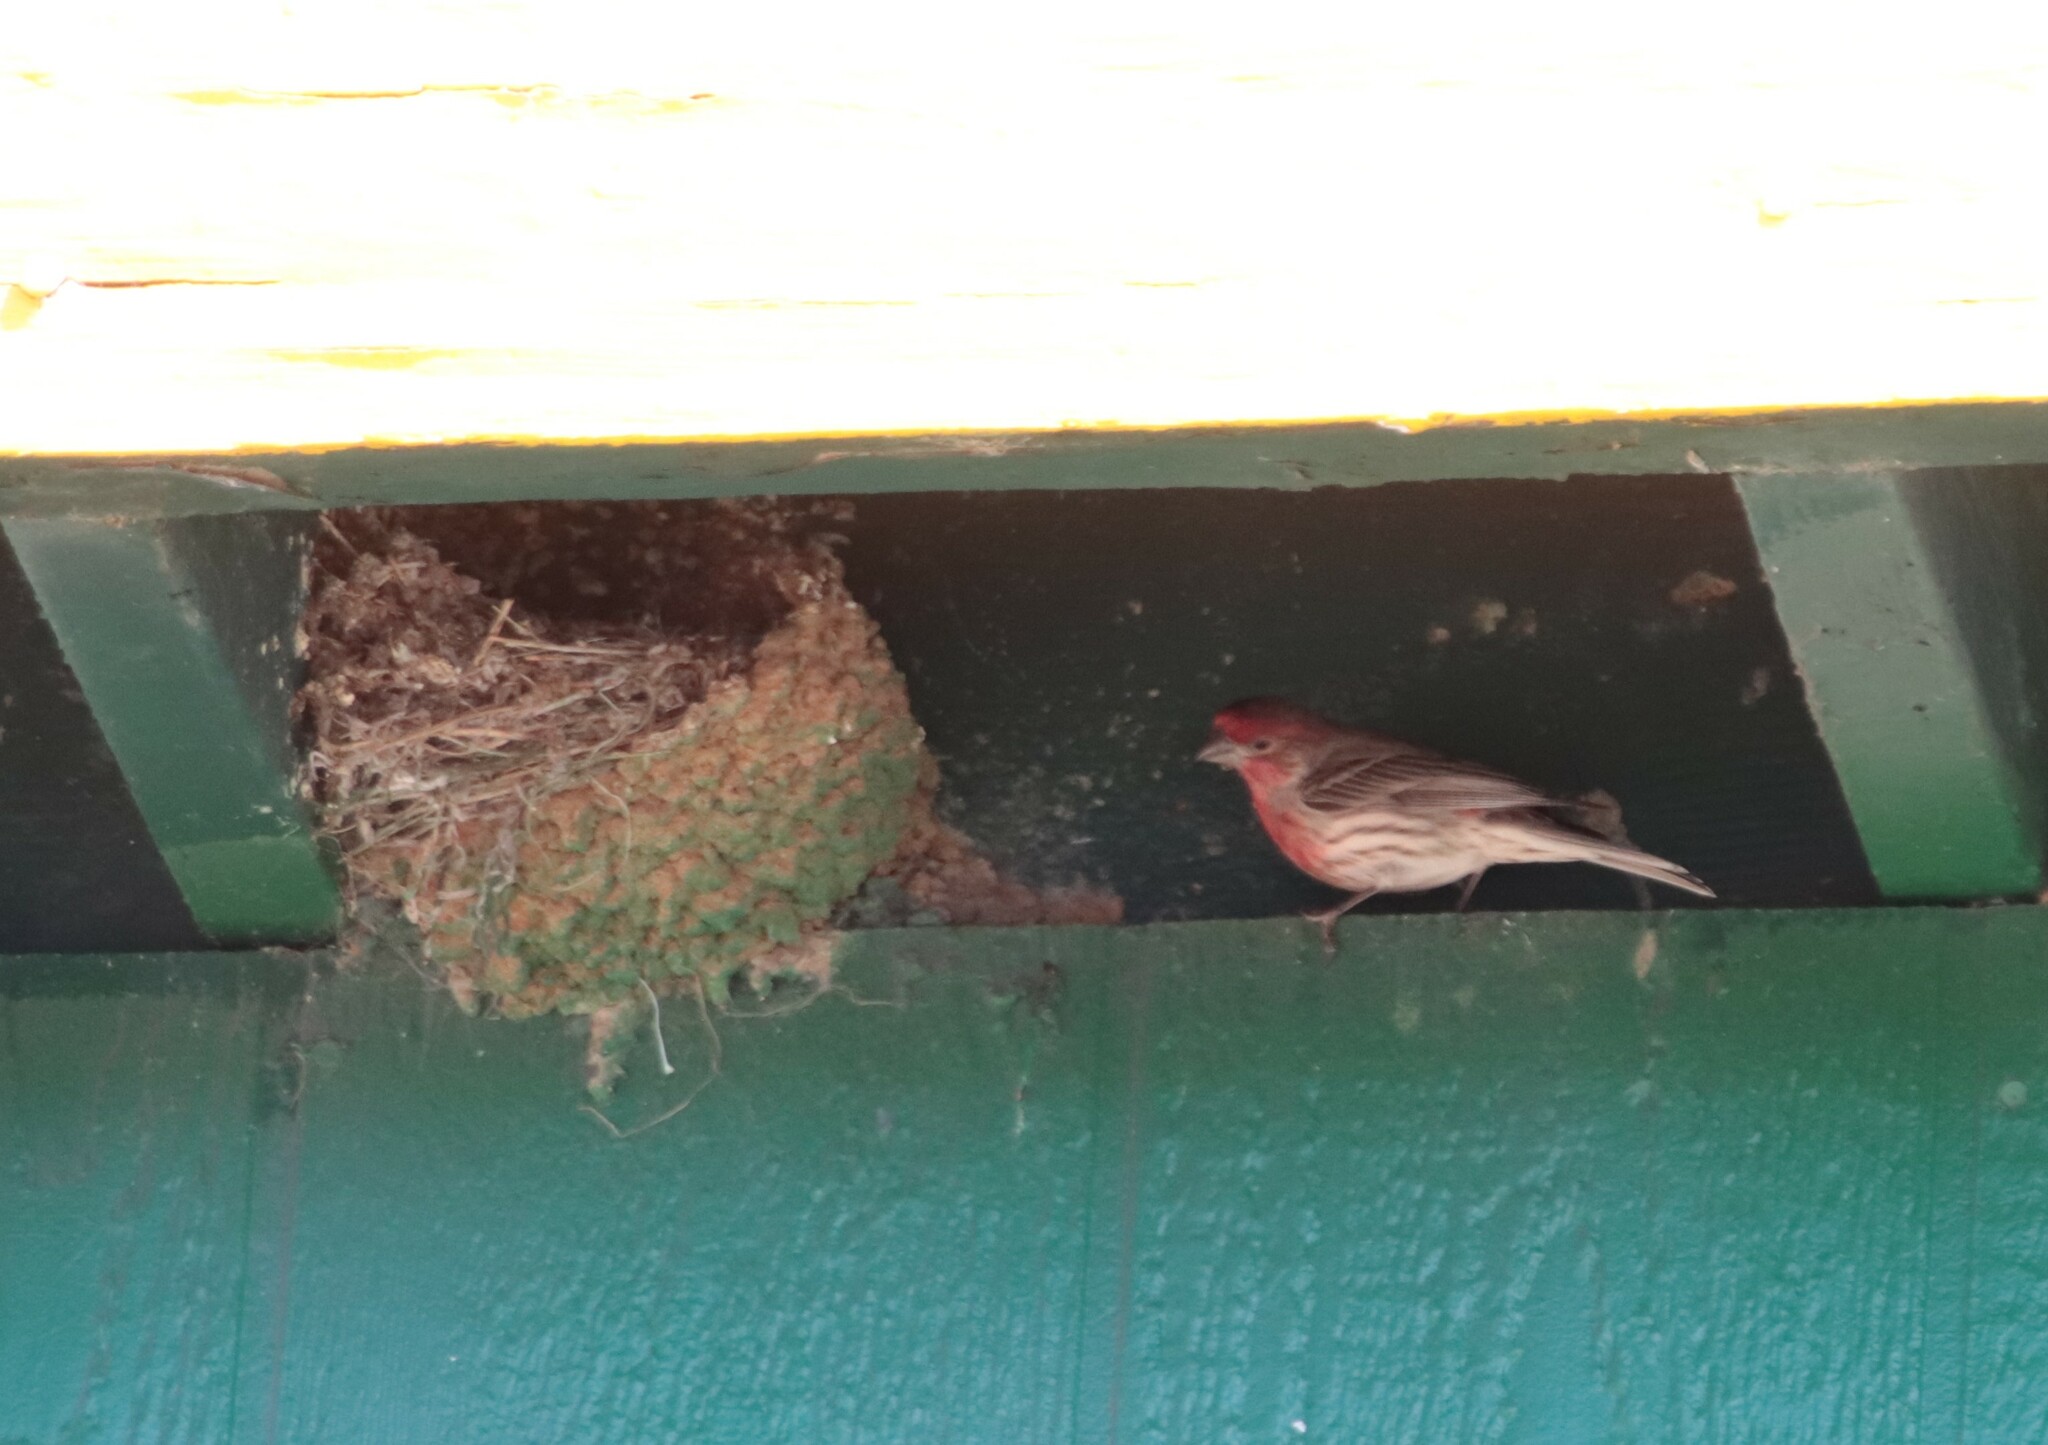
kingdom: Animalia
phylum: Chordata
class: Aves
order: Passeriformes
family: Fringillidae
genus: Haemorhous
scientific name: Haemorhous mexicanus
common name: House finch
